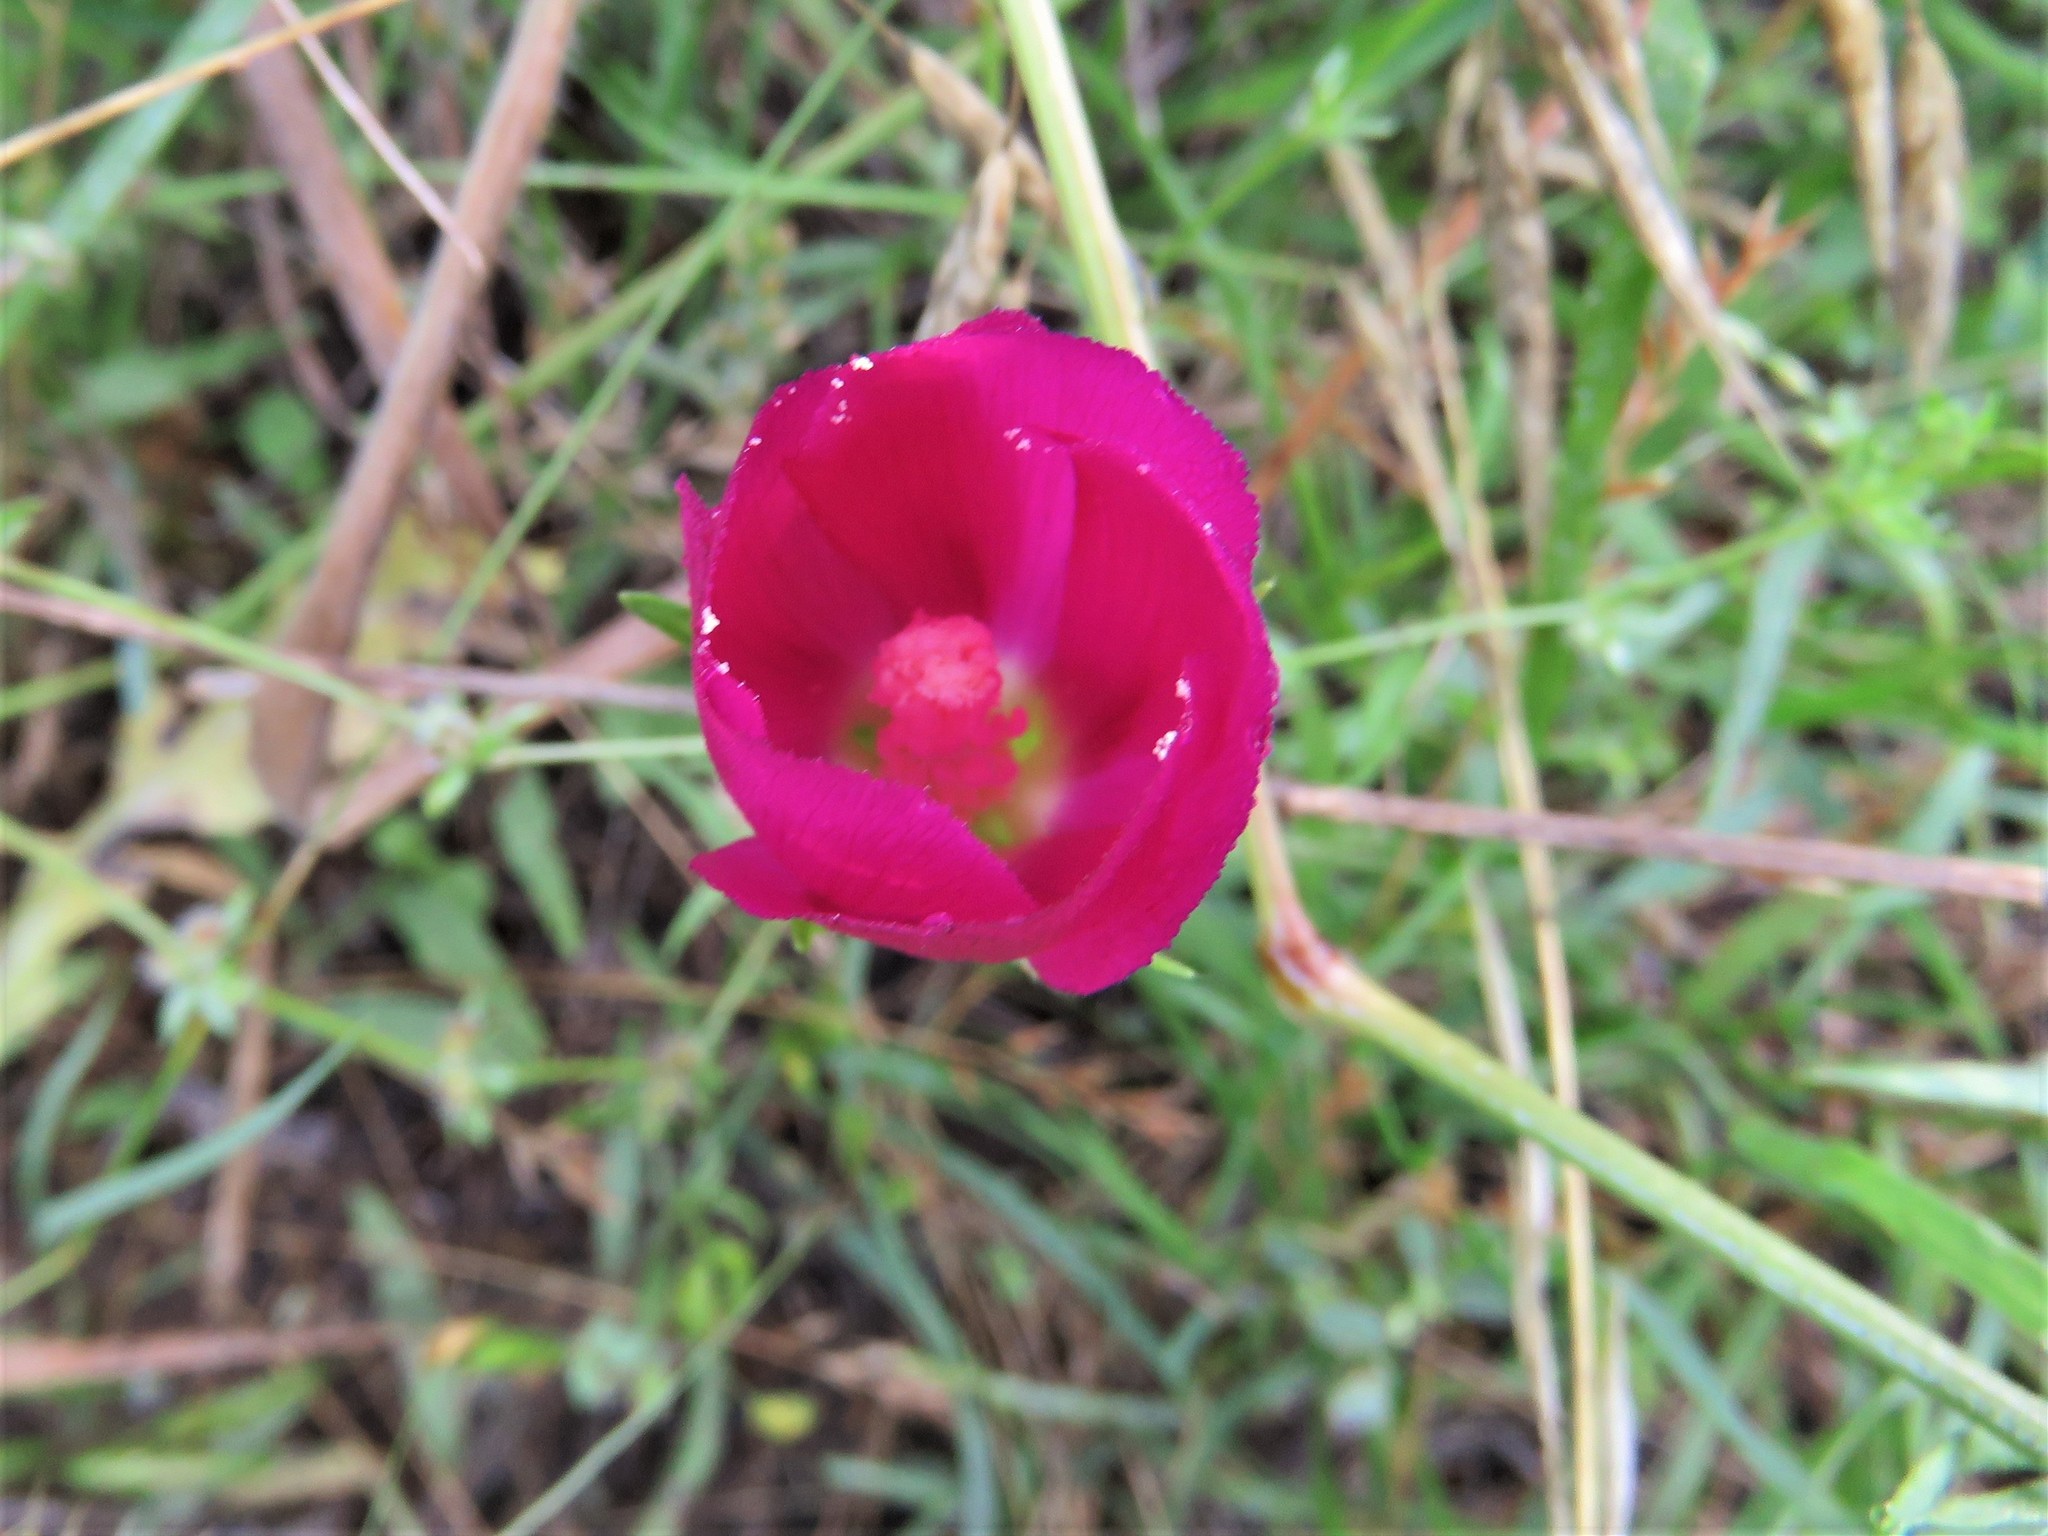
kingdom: Plantae
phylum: Tracheophyta
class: Magnoliopsida
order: Malvales
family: Malvaceae
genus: Callirhoe
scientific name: Callirhoe involucrata
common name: Purple poppy-mallow
